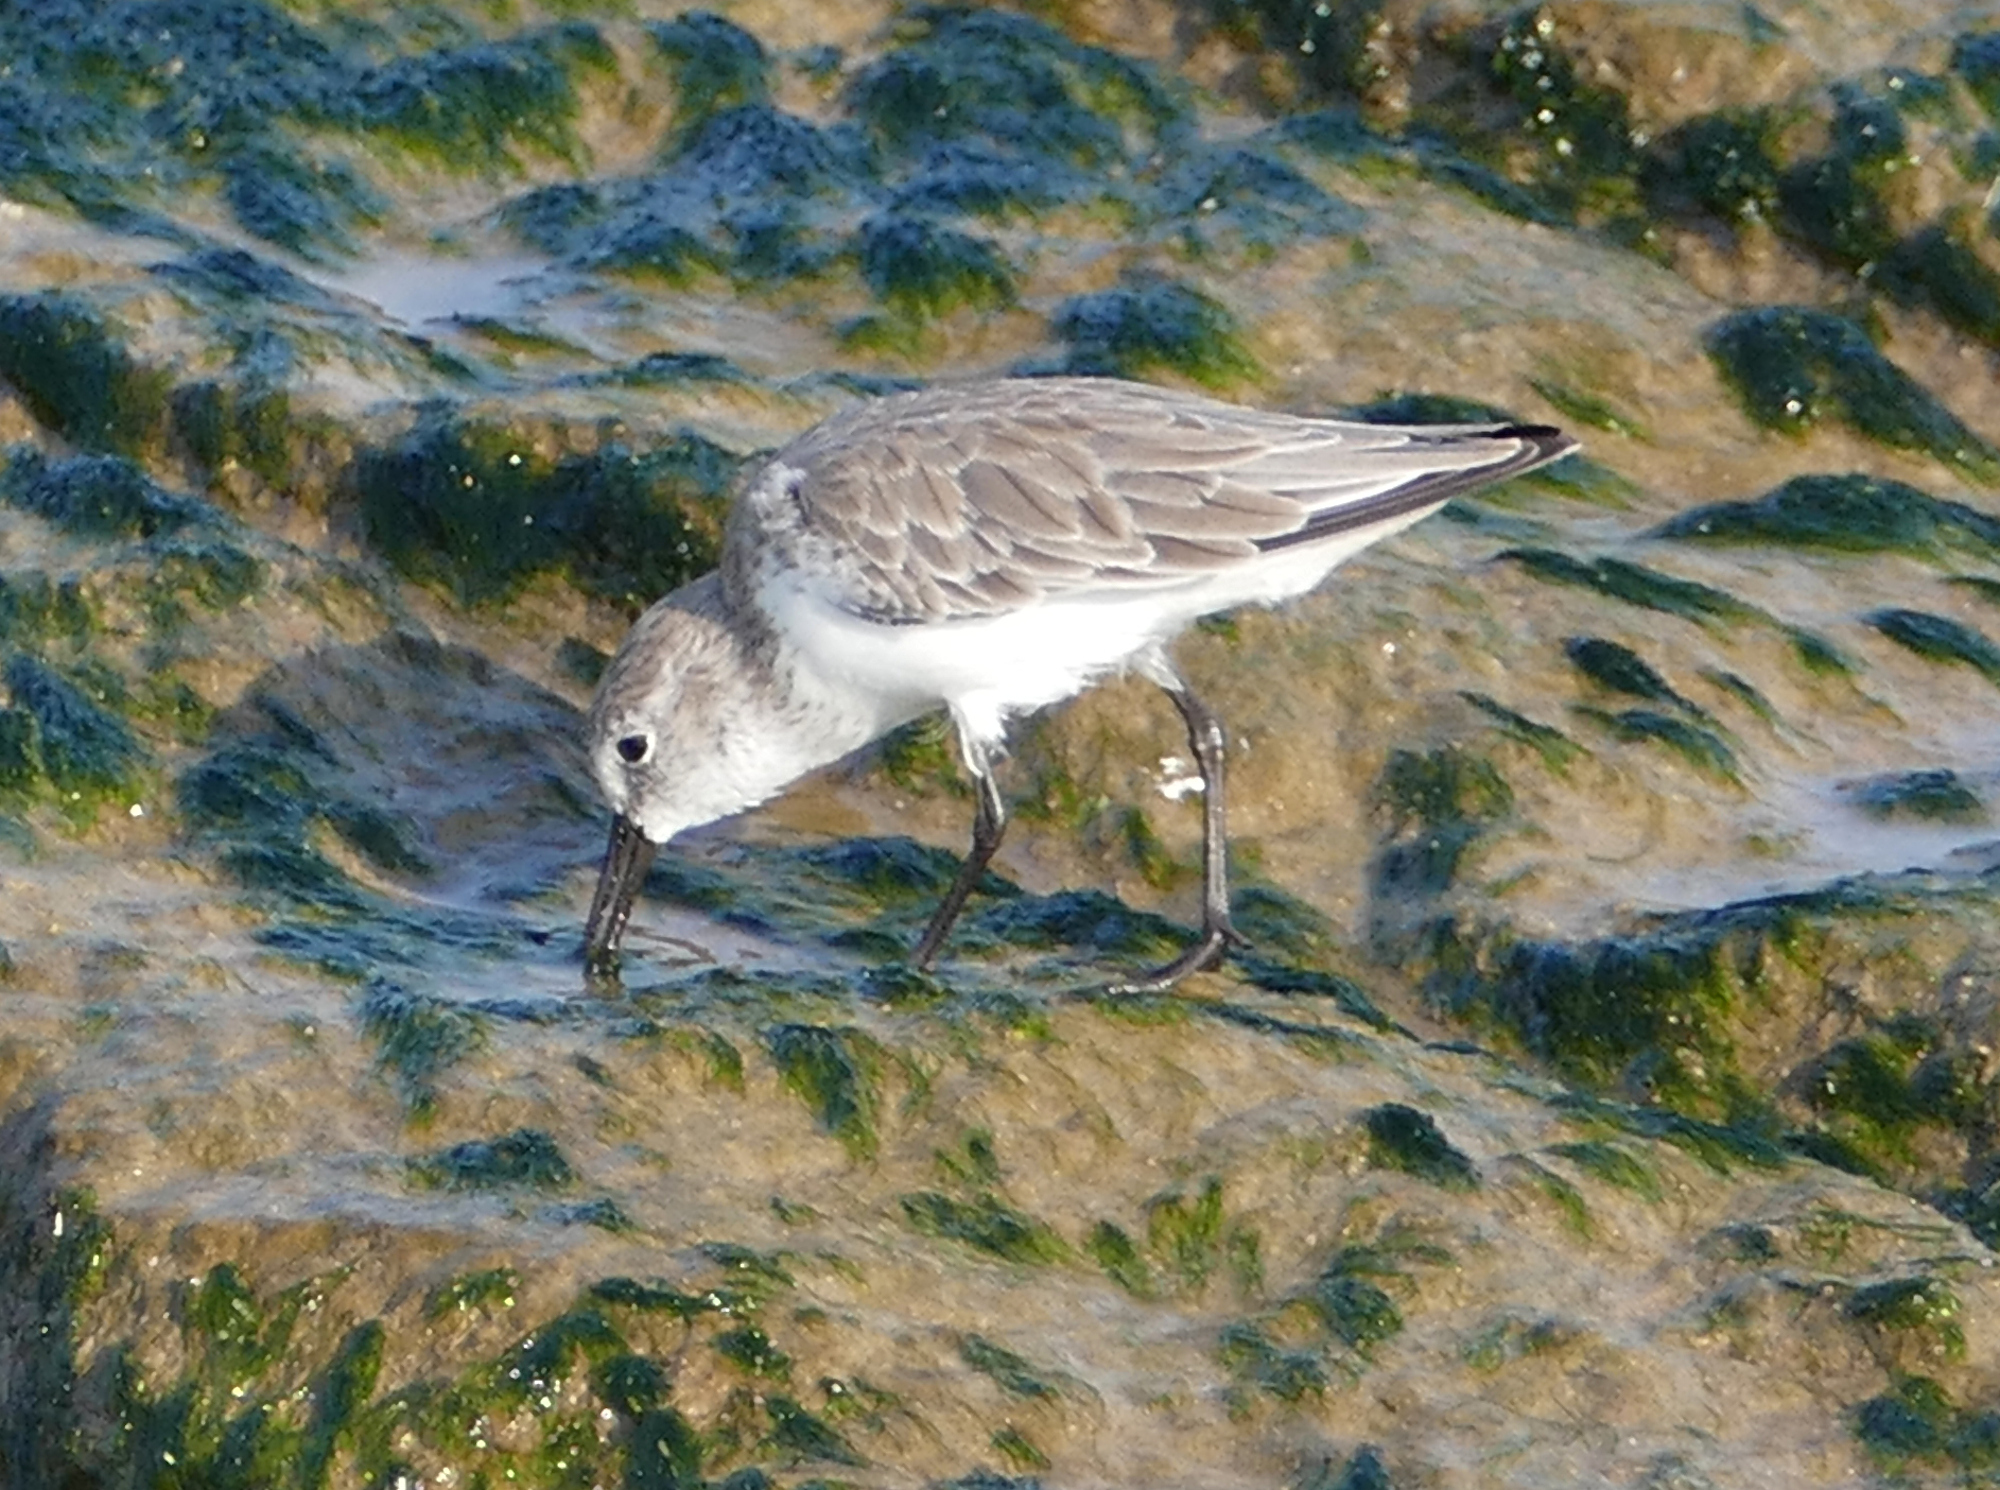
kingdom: Animalia
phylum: Chordata
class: Aves
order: Charadriiformes
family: Scolopacidae
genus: Calidris
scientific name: Calidris mauri
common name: Western sandpiper
